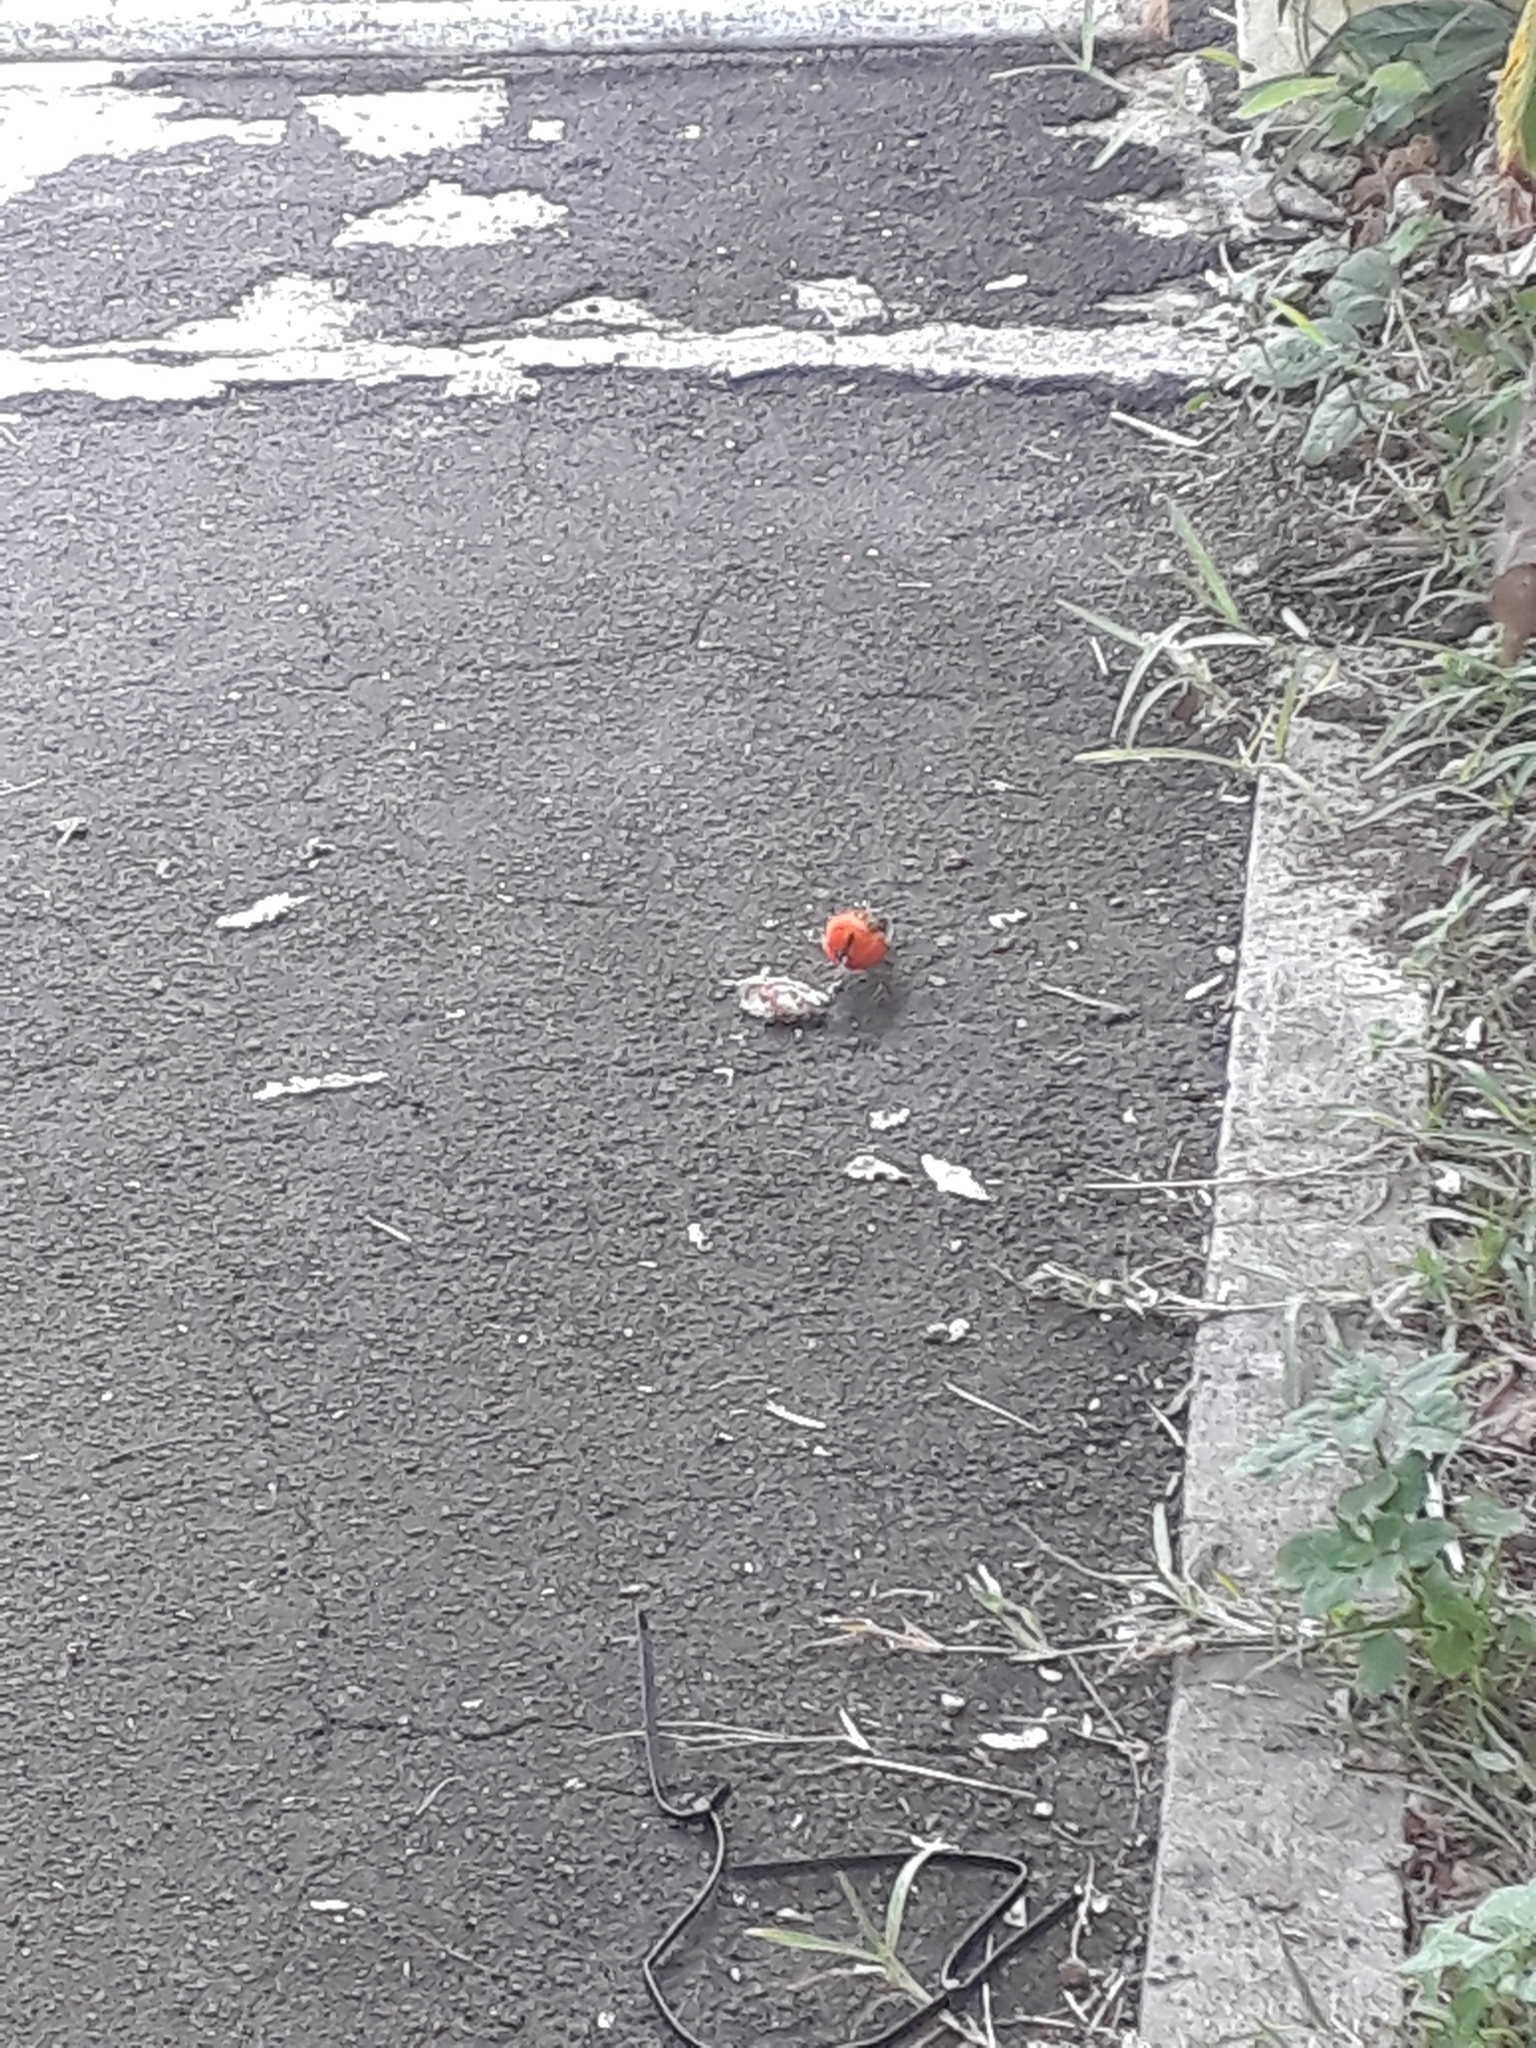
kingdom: Animalia
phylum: Chordata
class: Aves
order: Passeriformes
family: Ploceidae
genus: Foudia
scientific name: Foudia madagascariensis
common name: Red fody
